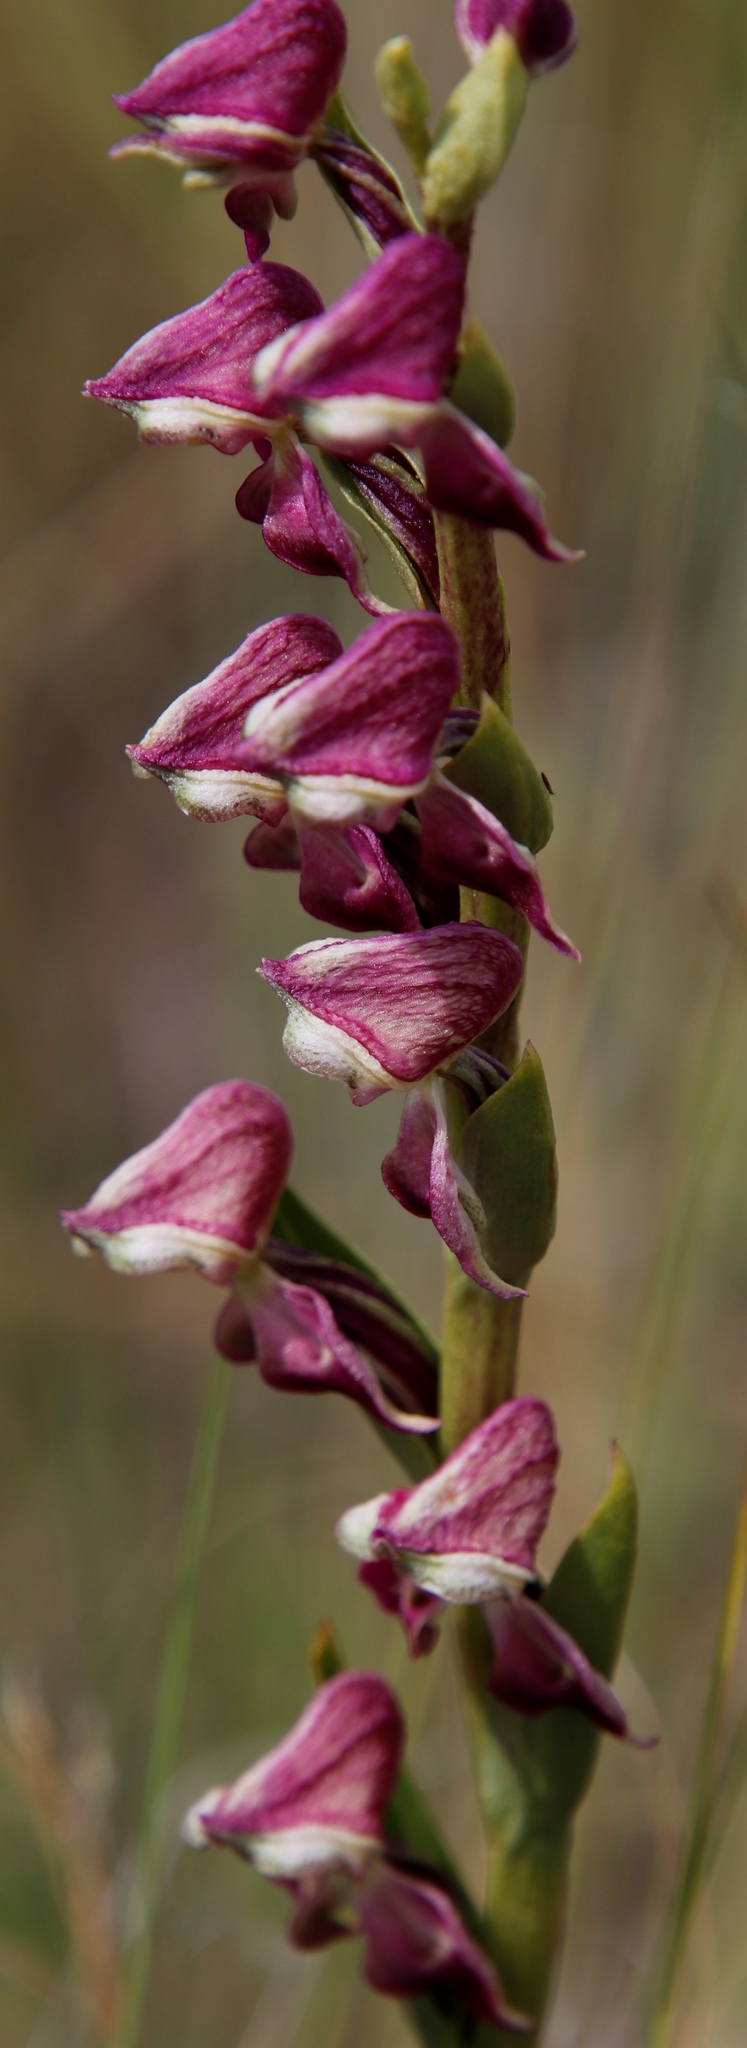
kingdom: Plantae
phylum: Tracheophyta
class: Liliopsida
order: Asparagales
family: Orchidaceae
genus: Disperis
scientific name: Disperis stenoplectron
